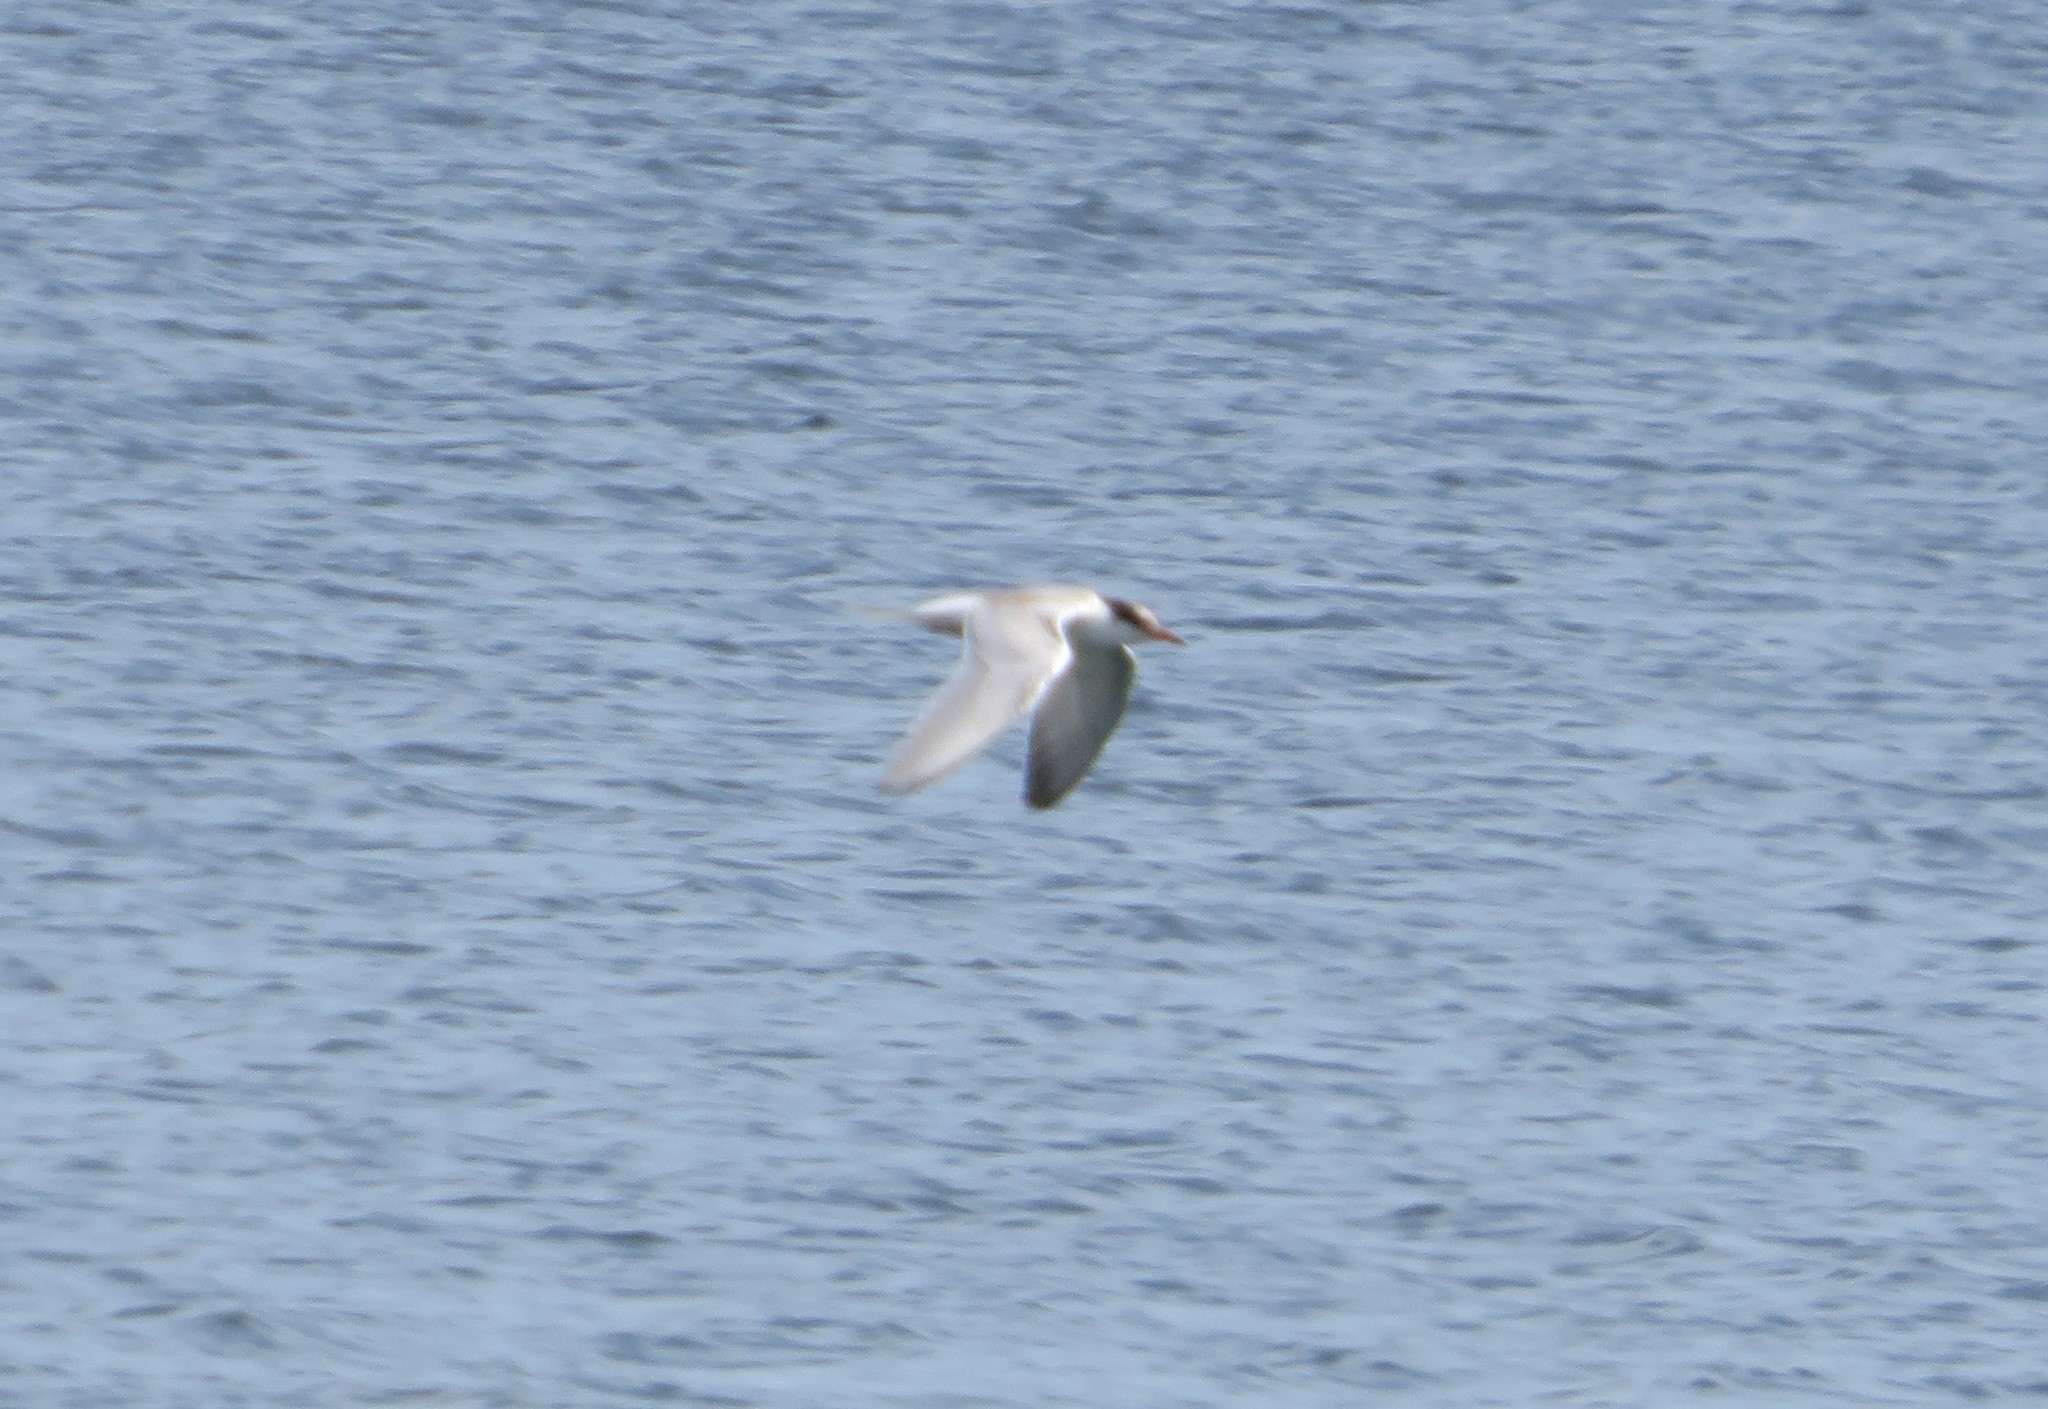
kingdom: Animalia
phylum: Chordata
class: Aves
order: Charadriiformes
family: Laridae
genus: Sterna
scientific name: Sterna hirundo
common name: Common tern
